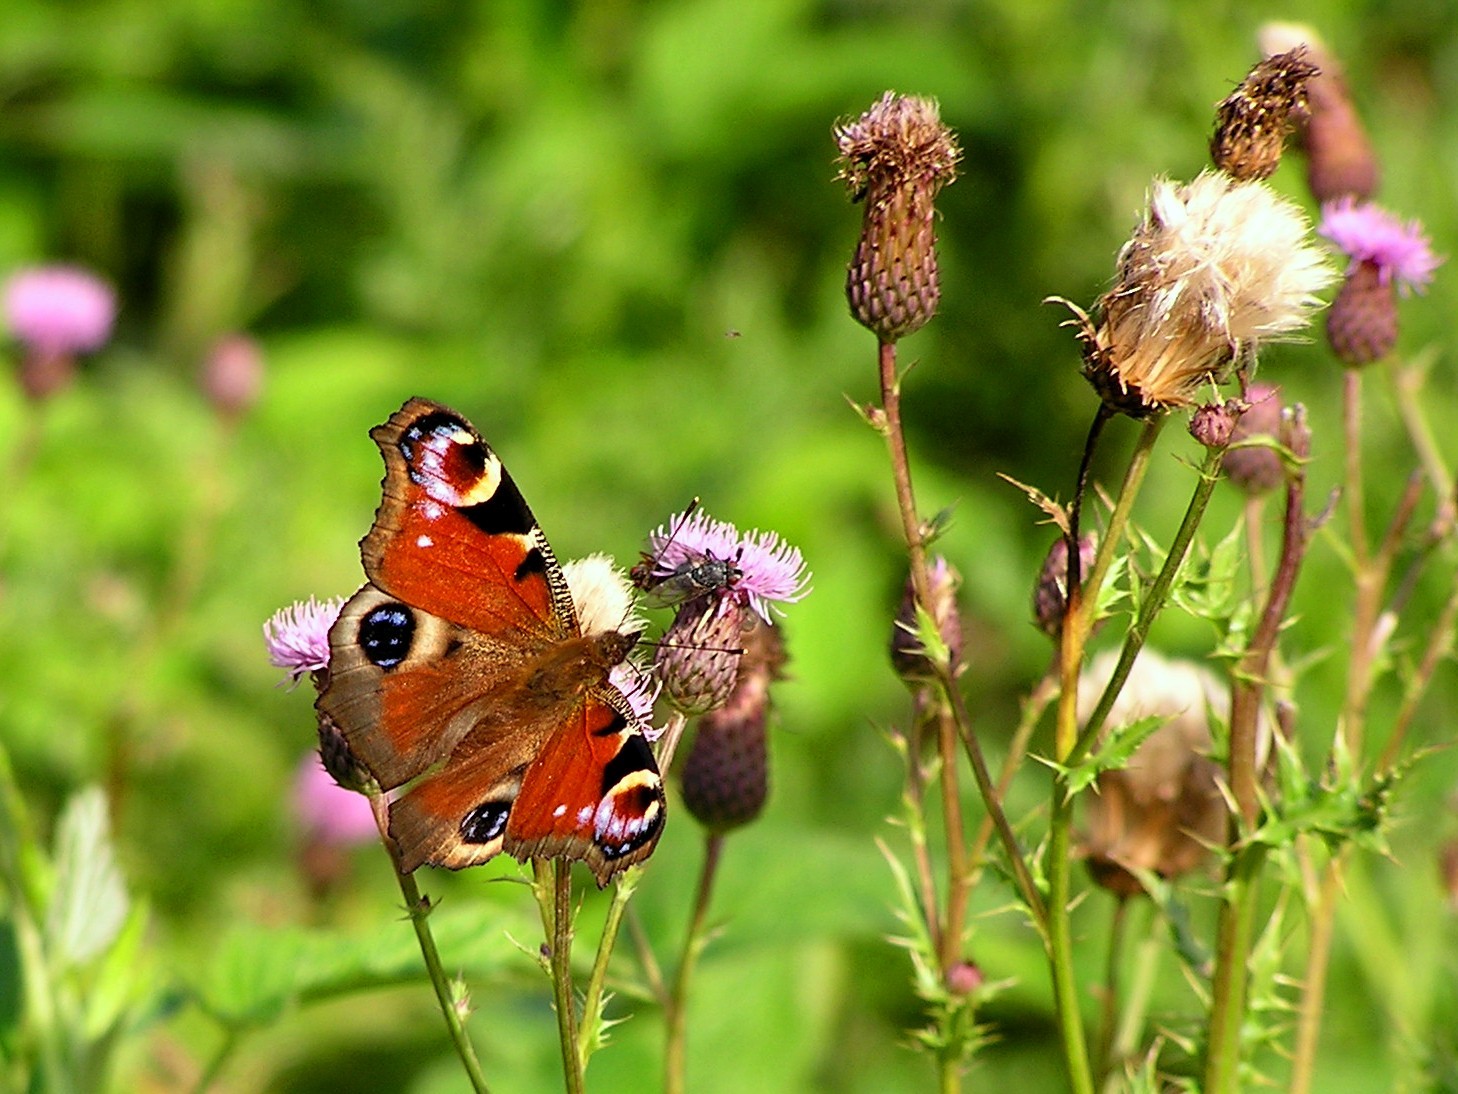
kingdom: Animalia
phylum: Arthropoda
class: Insecta
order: Lepidoptera
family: Nymphalidae
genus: Aglais
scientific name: Aglais io
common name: Peacock
